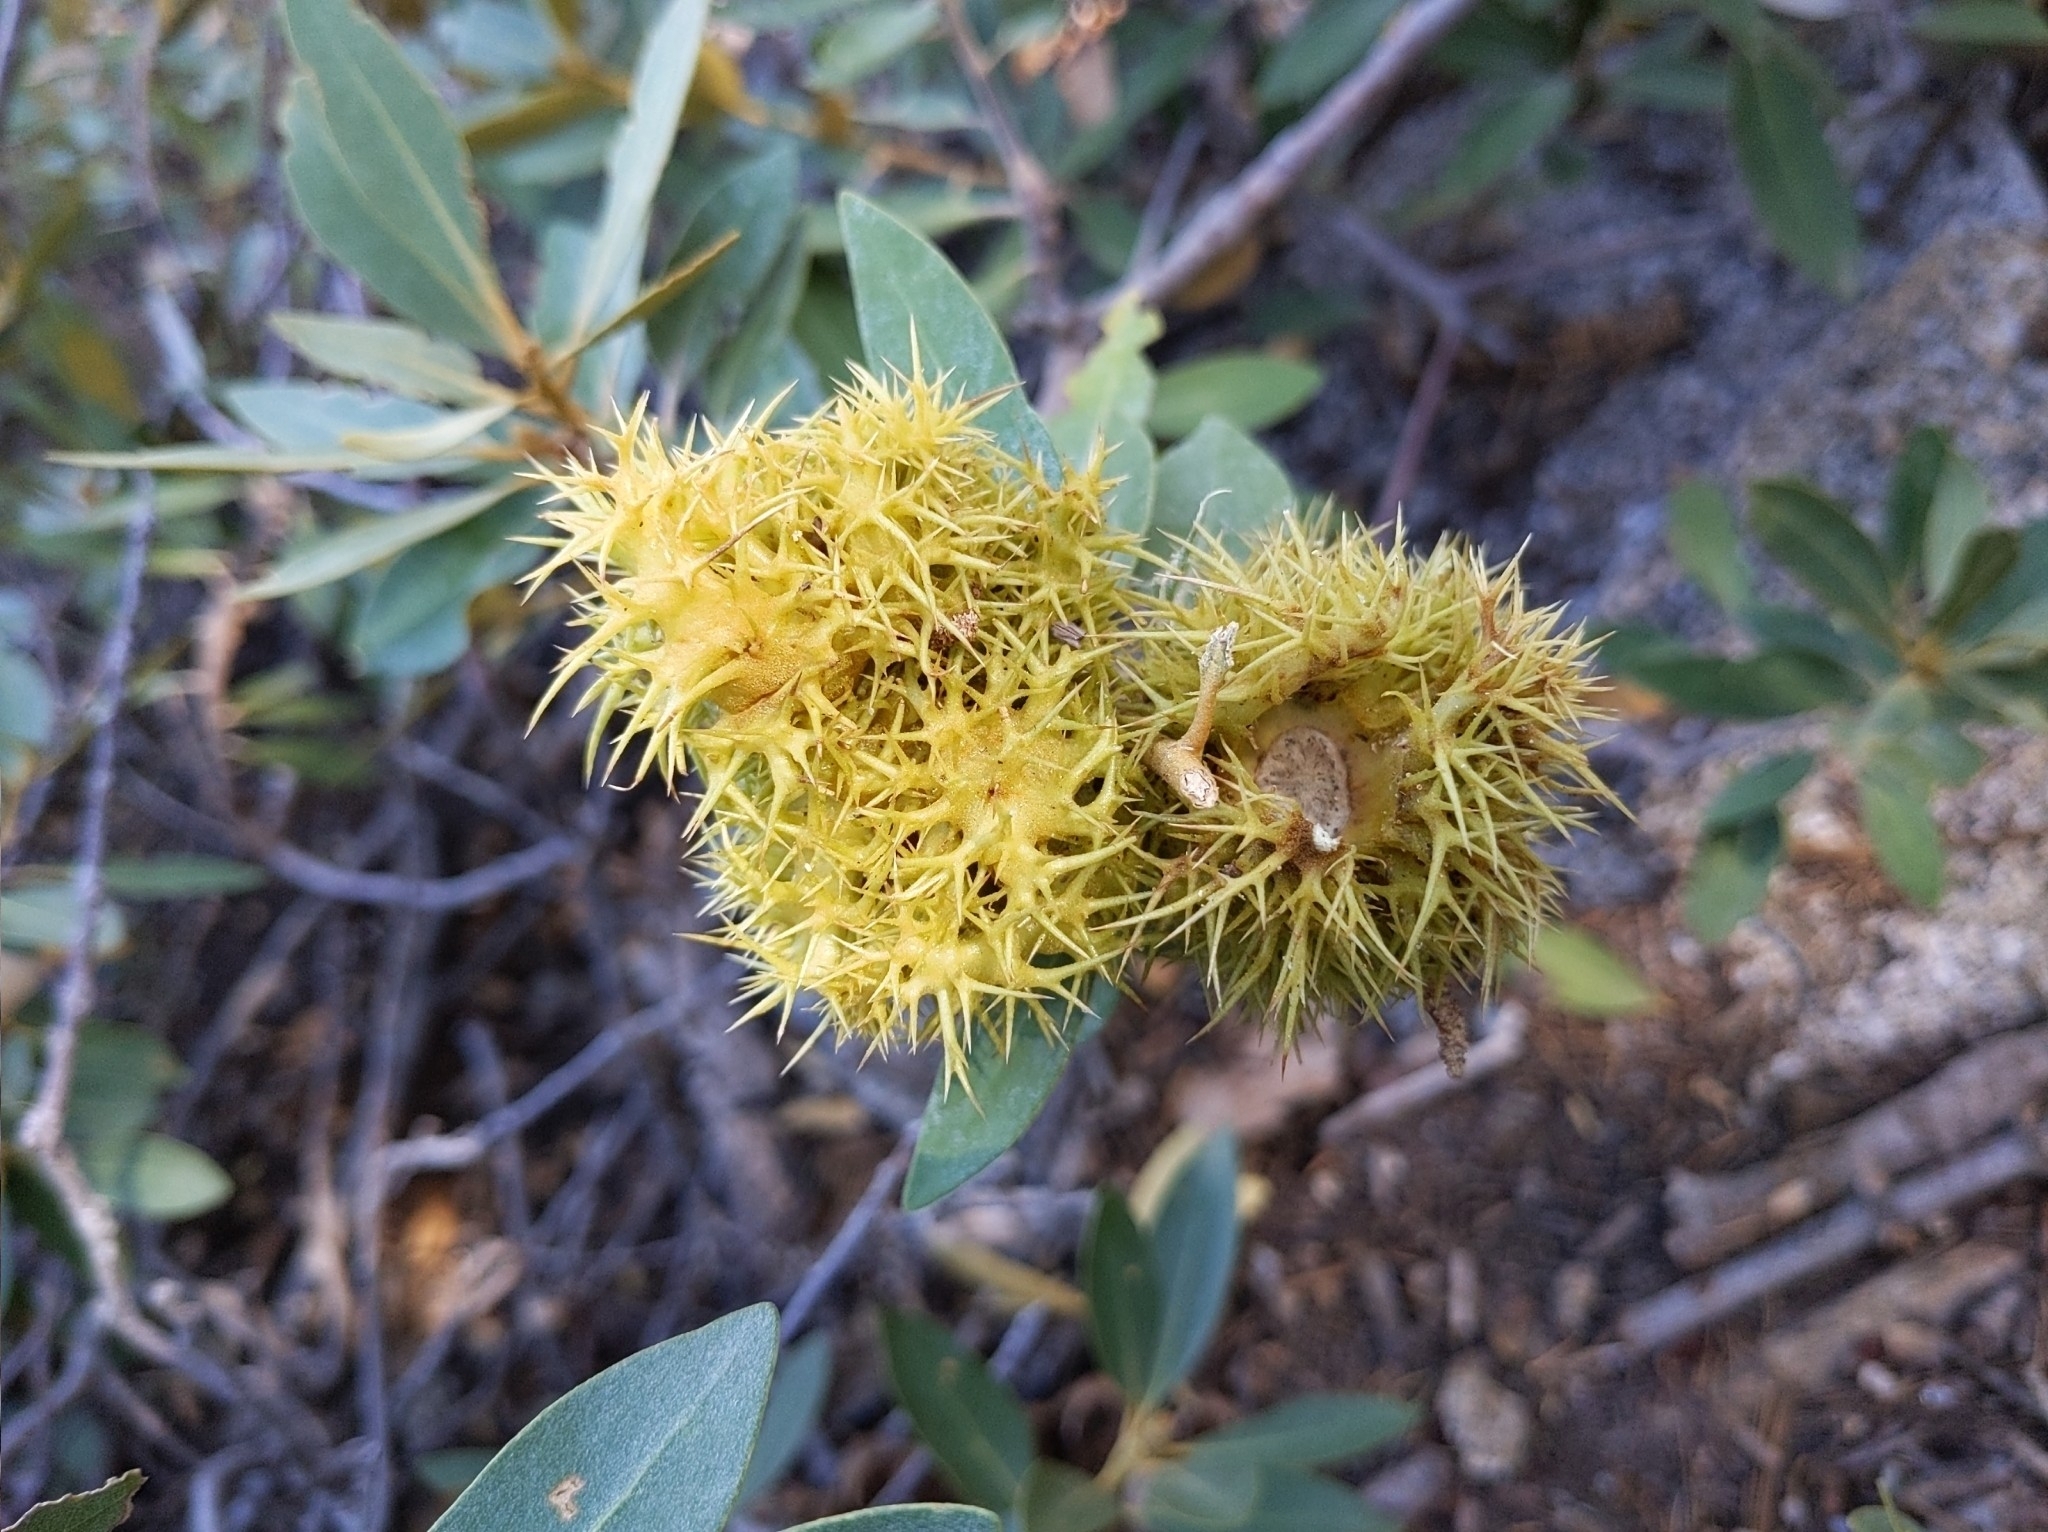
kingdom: Plantae
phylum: Tracheophyta
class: Magnoliopsida
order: Fagales
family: Fagaceae
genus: Chrysolepis
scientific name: Chrysolepis sempervirens
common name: Bush chinquapin
